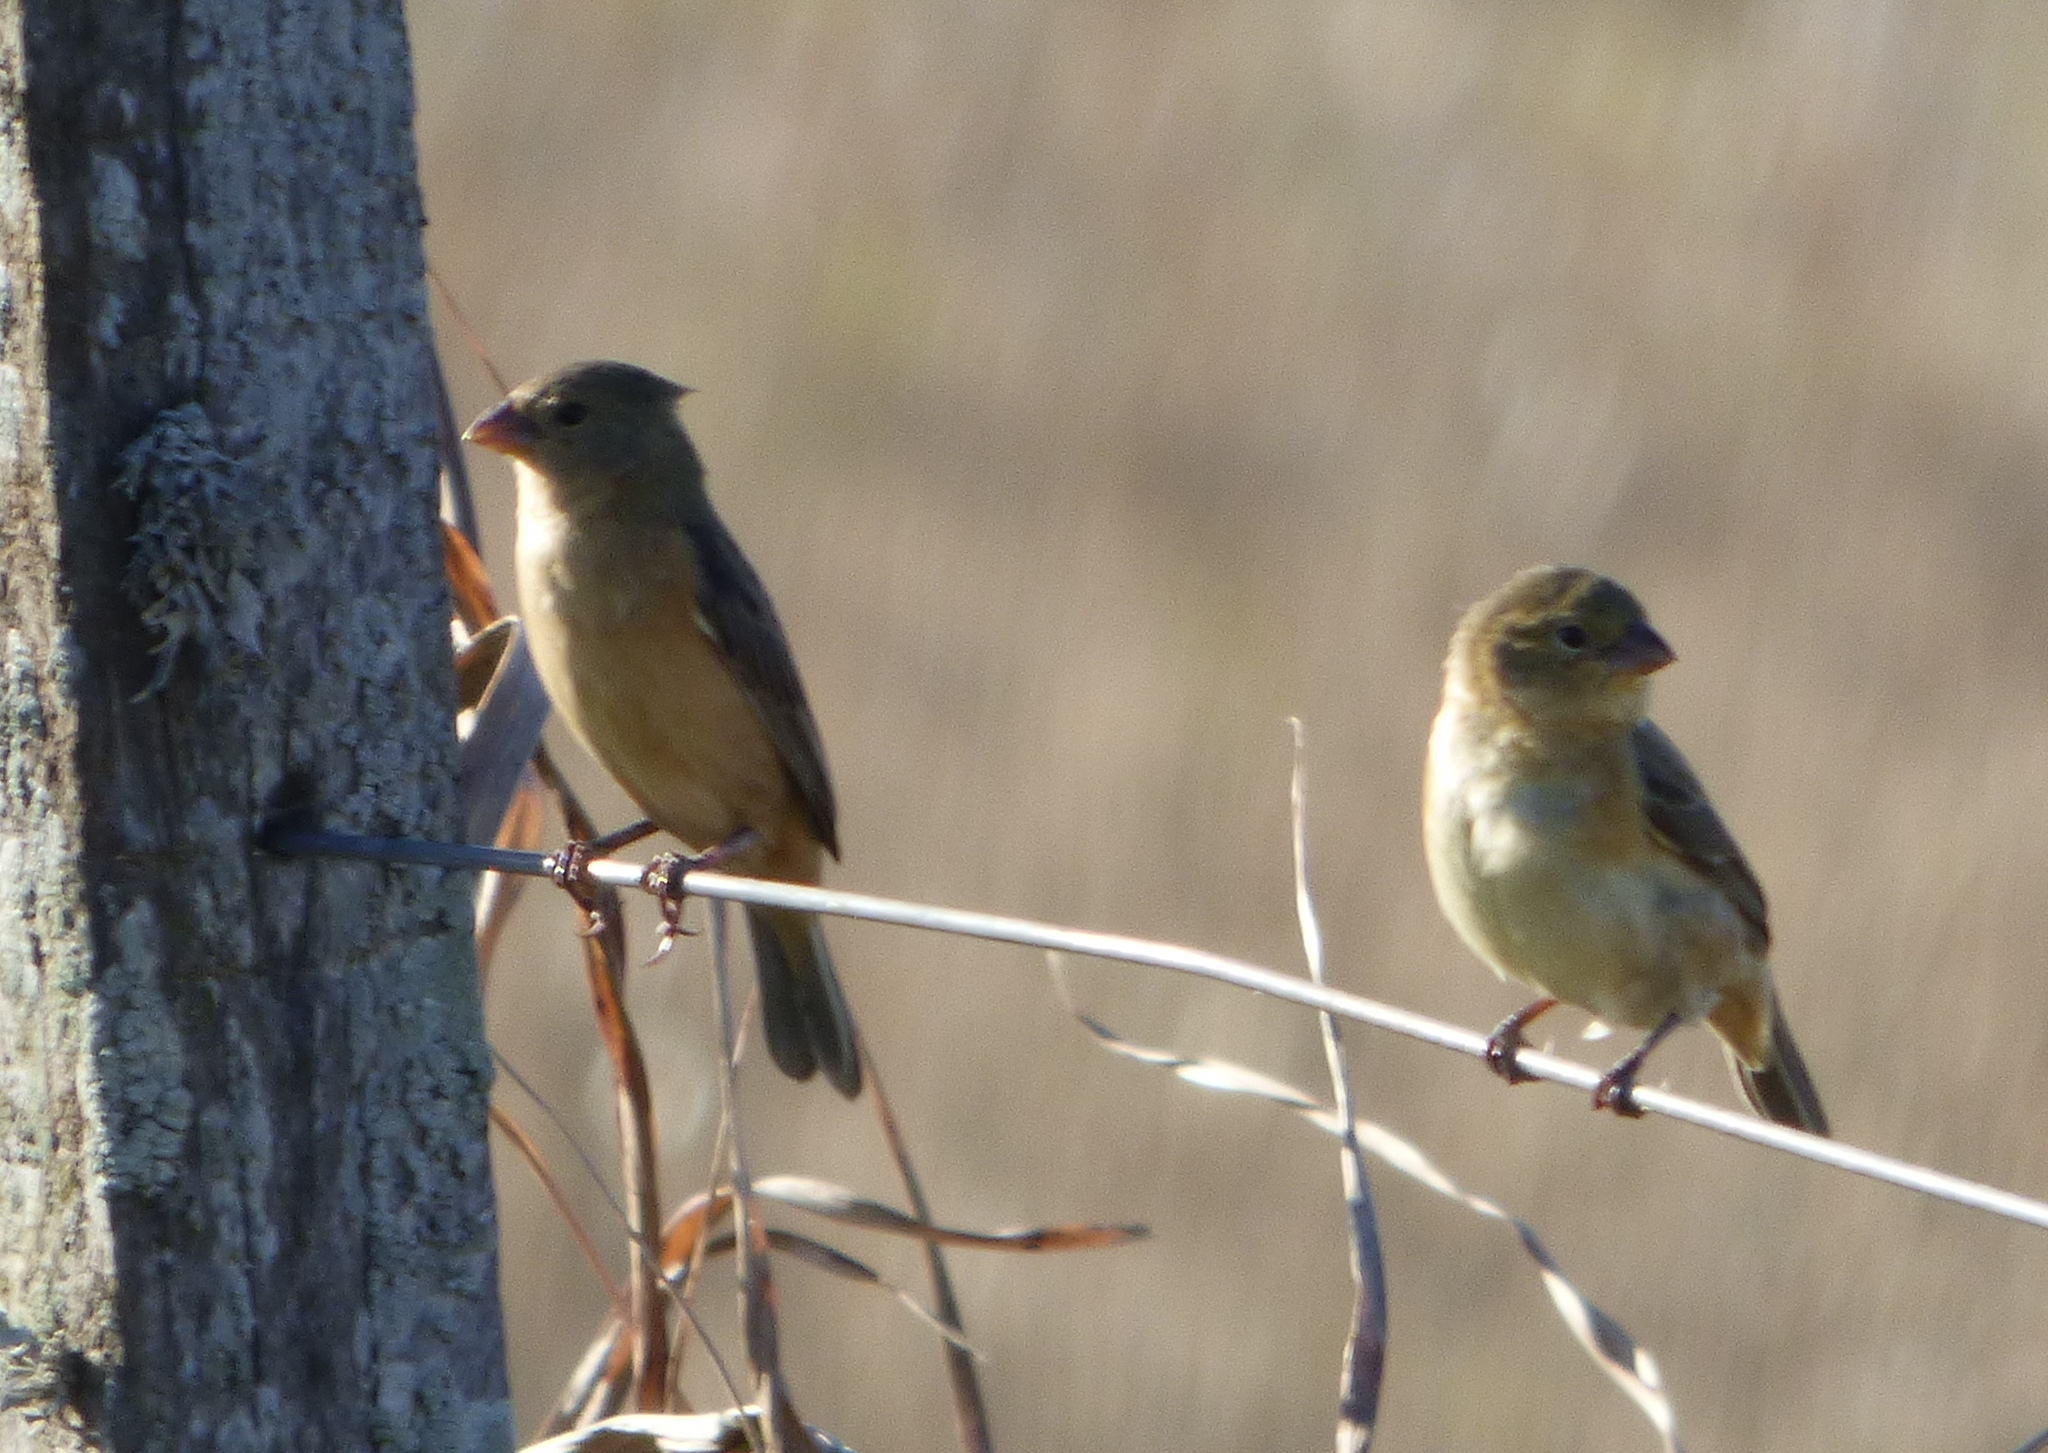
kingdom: Animalia
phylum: Chordata
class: Aves
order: Passeriformes
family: Thraupidae
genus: Sporophila
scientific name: Sporophila ruficollis
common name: Dark-throated seedeater
